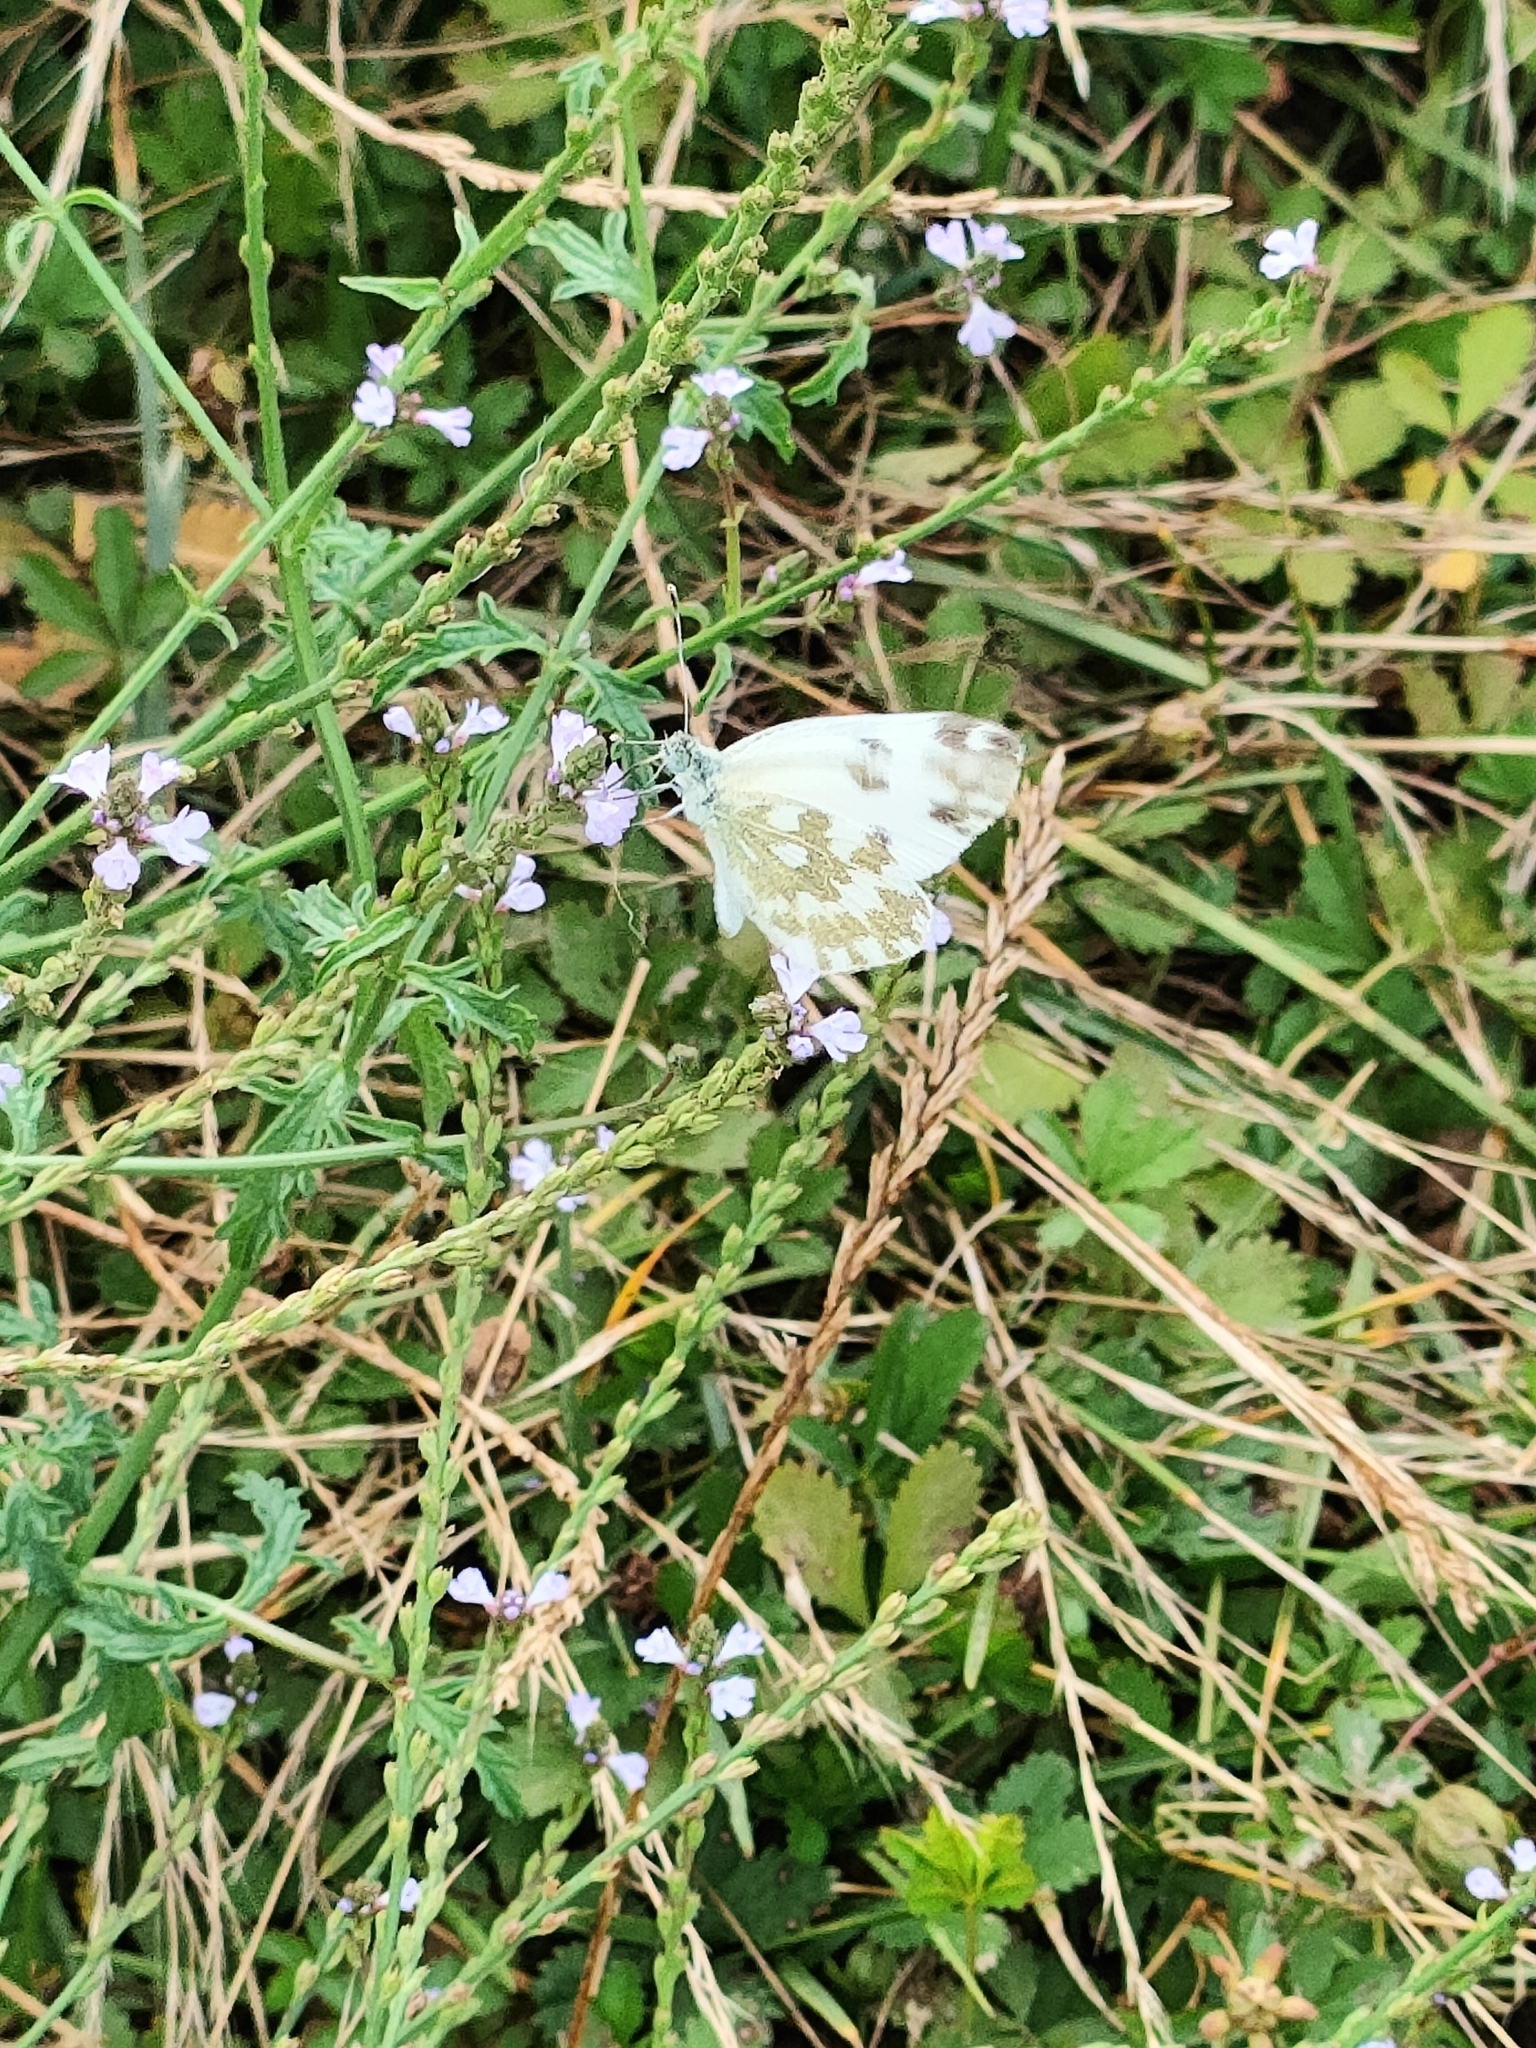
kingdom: Animalia
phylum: Arthropoda
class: Insecta
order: Lepidoptera
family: Pieridae
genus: Pontia
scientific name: Pontia edusa
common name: Eastern bath white
